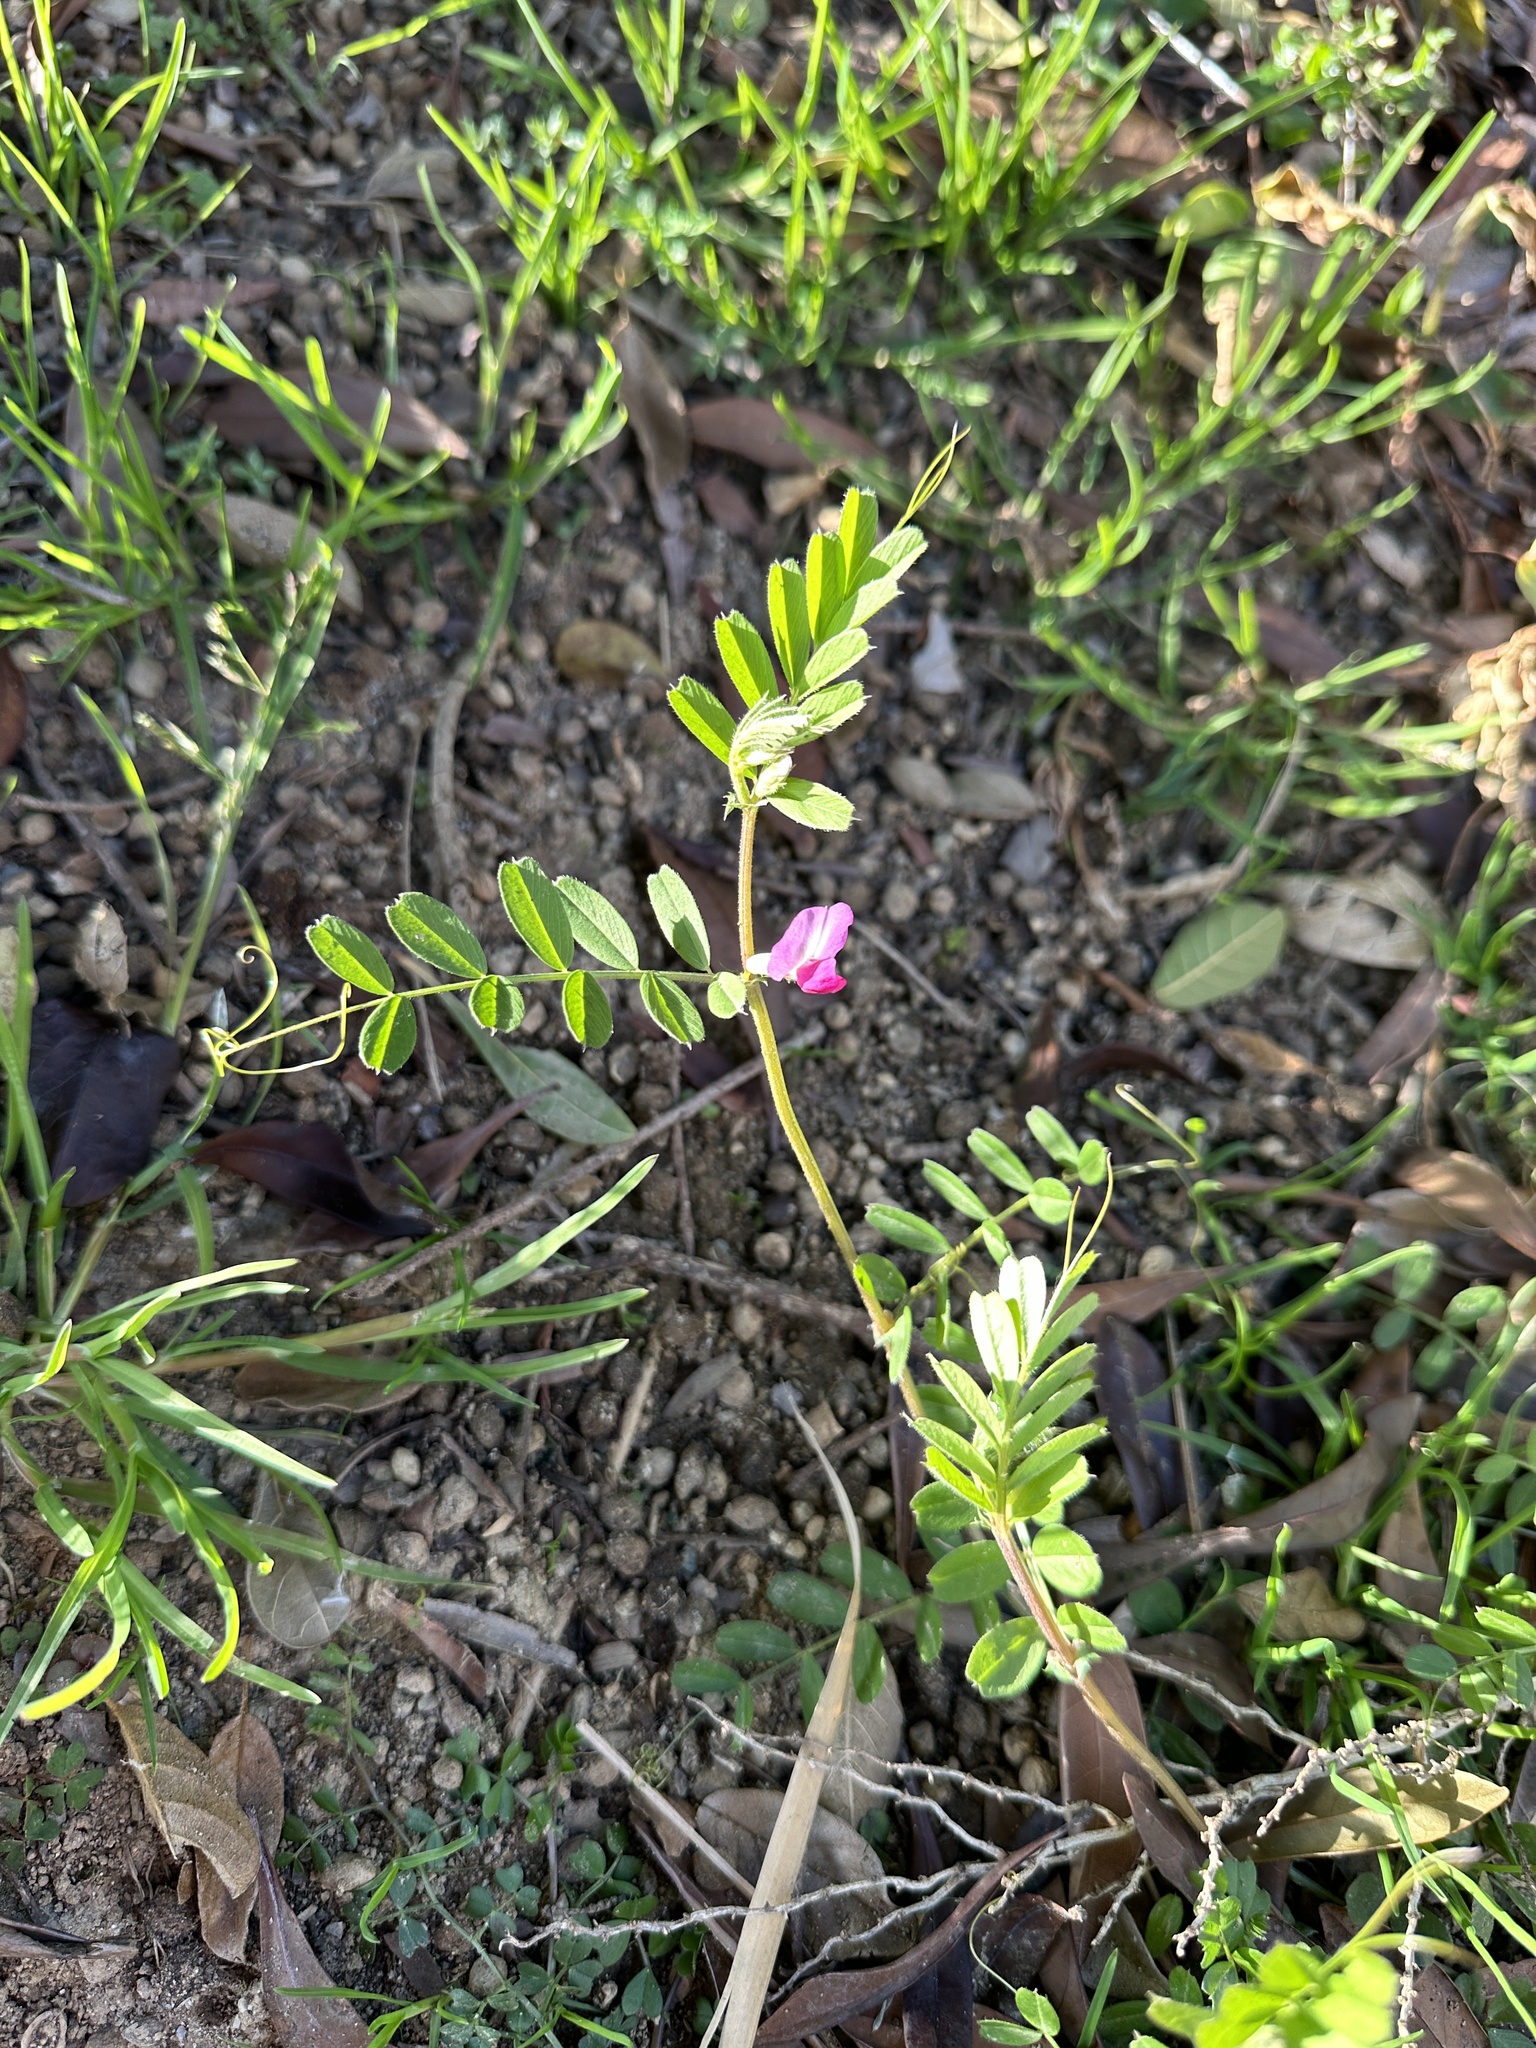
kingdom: Plantae
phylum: Tracheophyta
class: Magnoliopsida
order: Fabales
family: Fabaceae
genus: Vicia
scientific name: Vicia sativa
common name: Garden vetch
